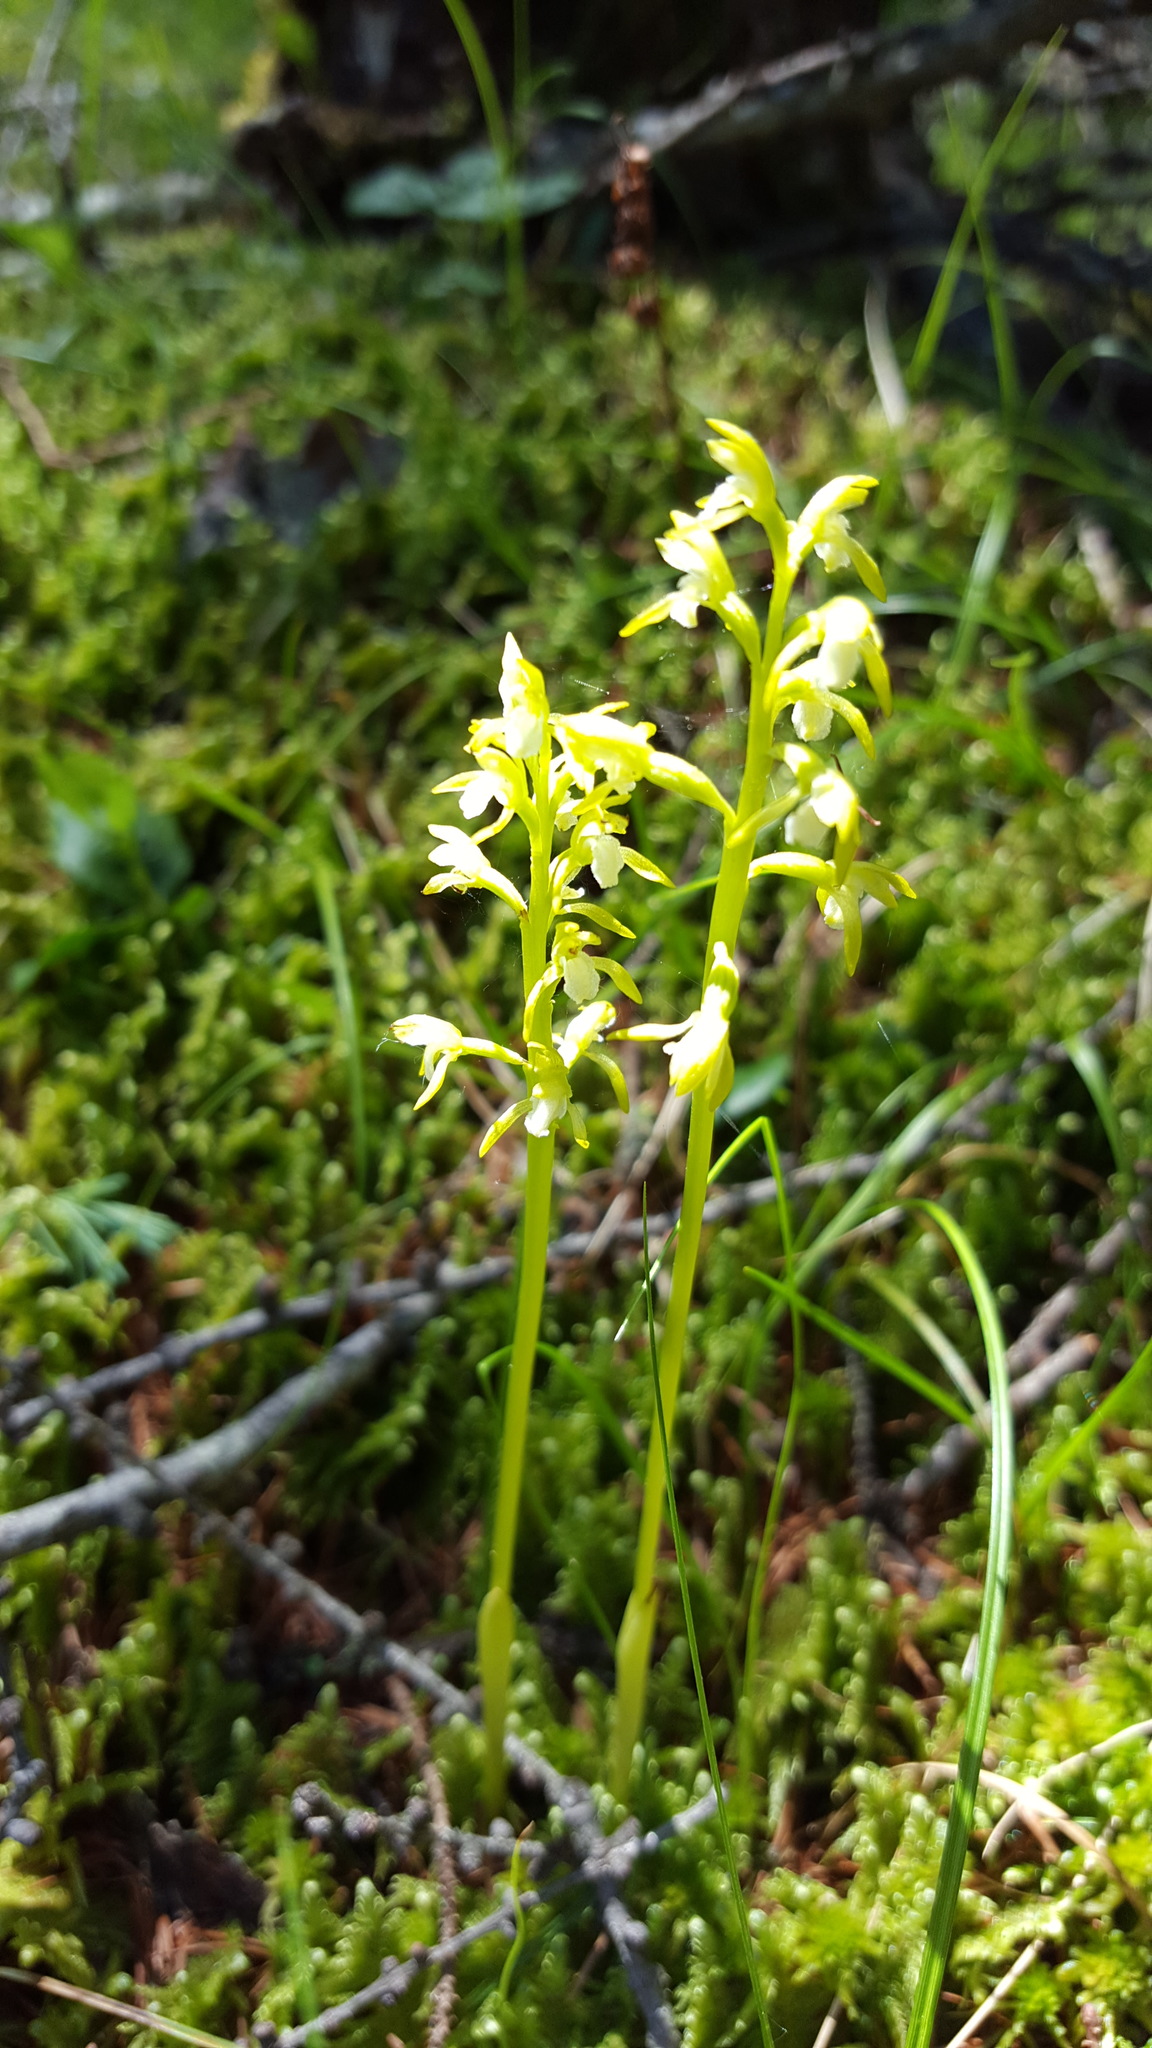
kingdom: Plantae
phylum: Tracheophyta
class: Liliopsida
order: Asparagales
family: Orchidaceae
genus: Corallorhiza
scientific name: Corallorhiza trifida
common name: Yellow coralroot
